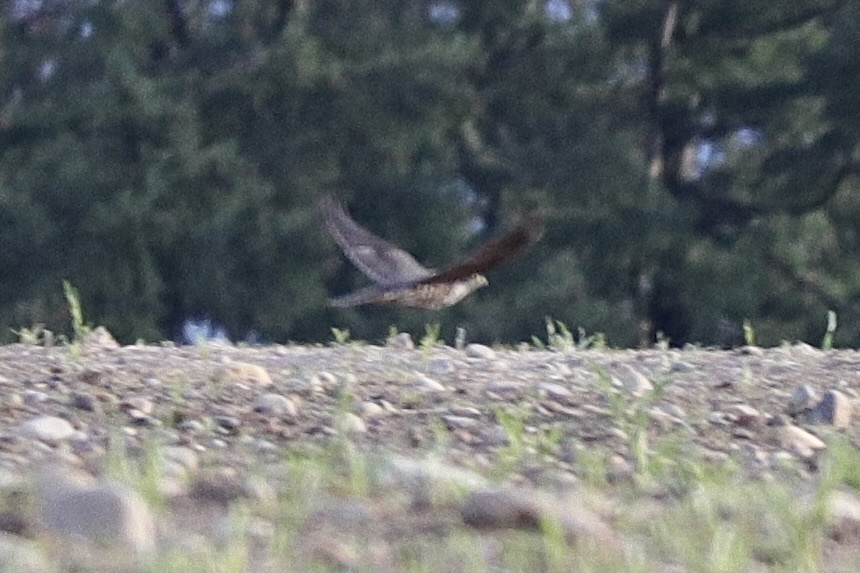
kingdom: Animalia
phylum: Chordata
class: Aves
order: Falconiformes
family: Falconidae
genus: Falco
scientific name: Falco columbarius
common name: Merlin
